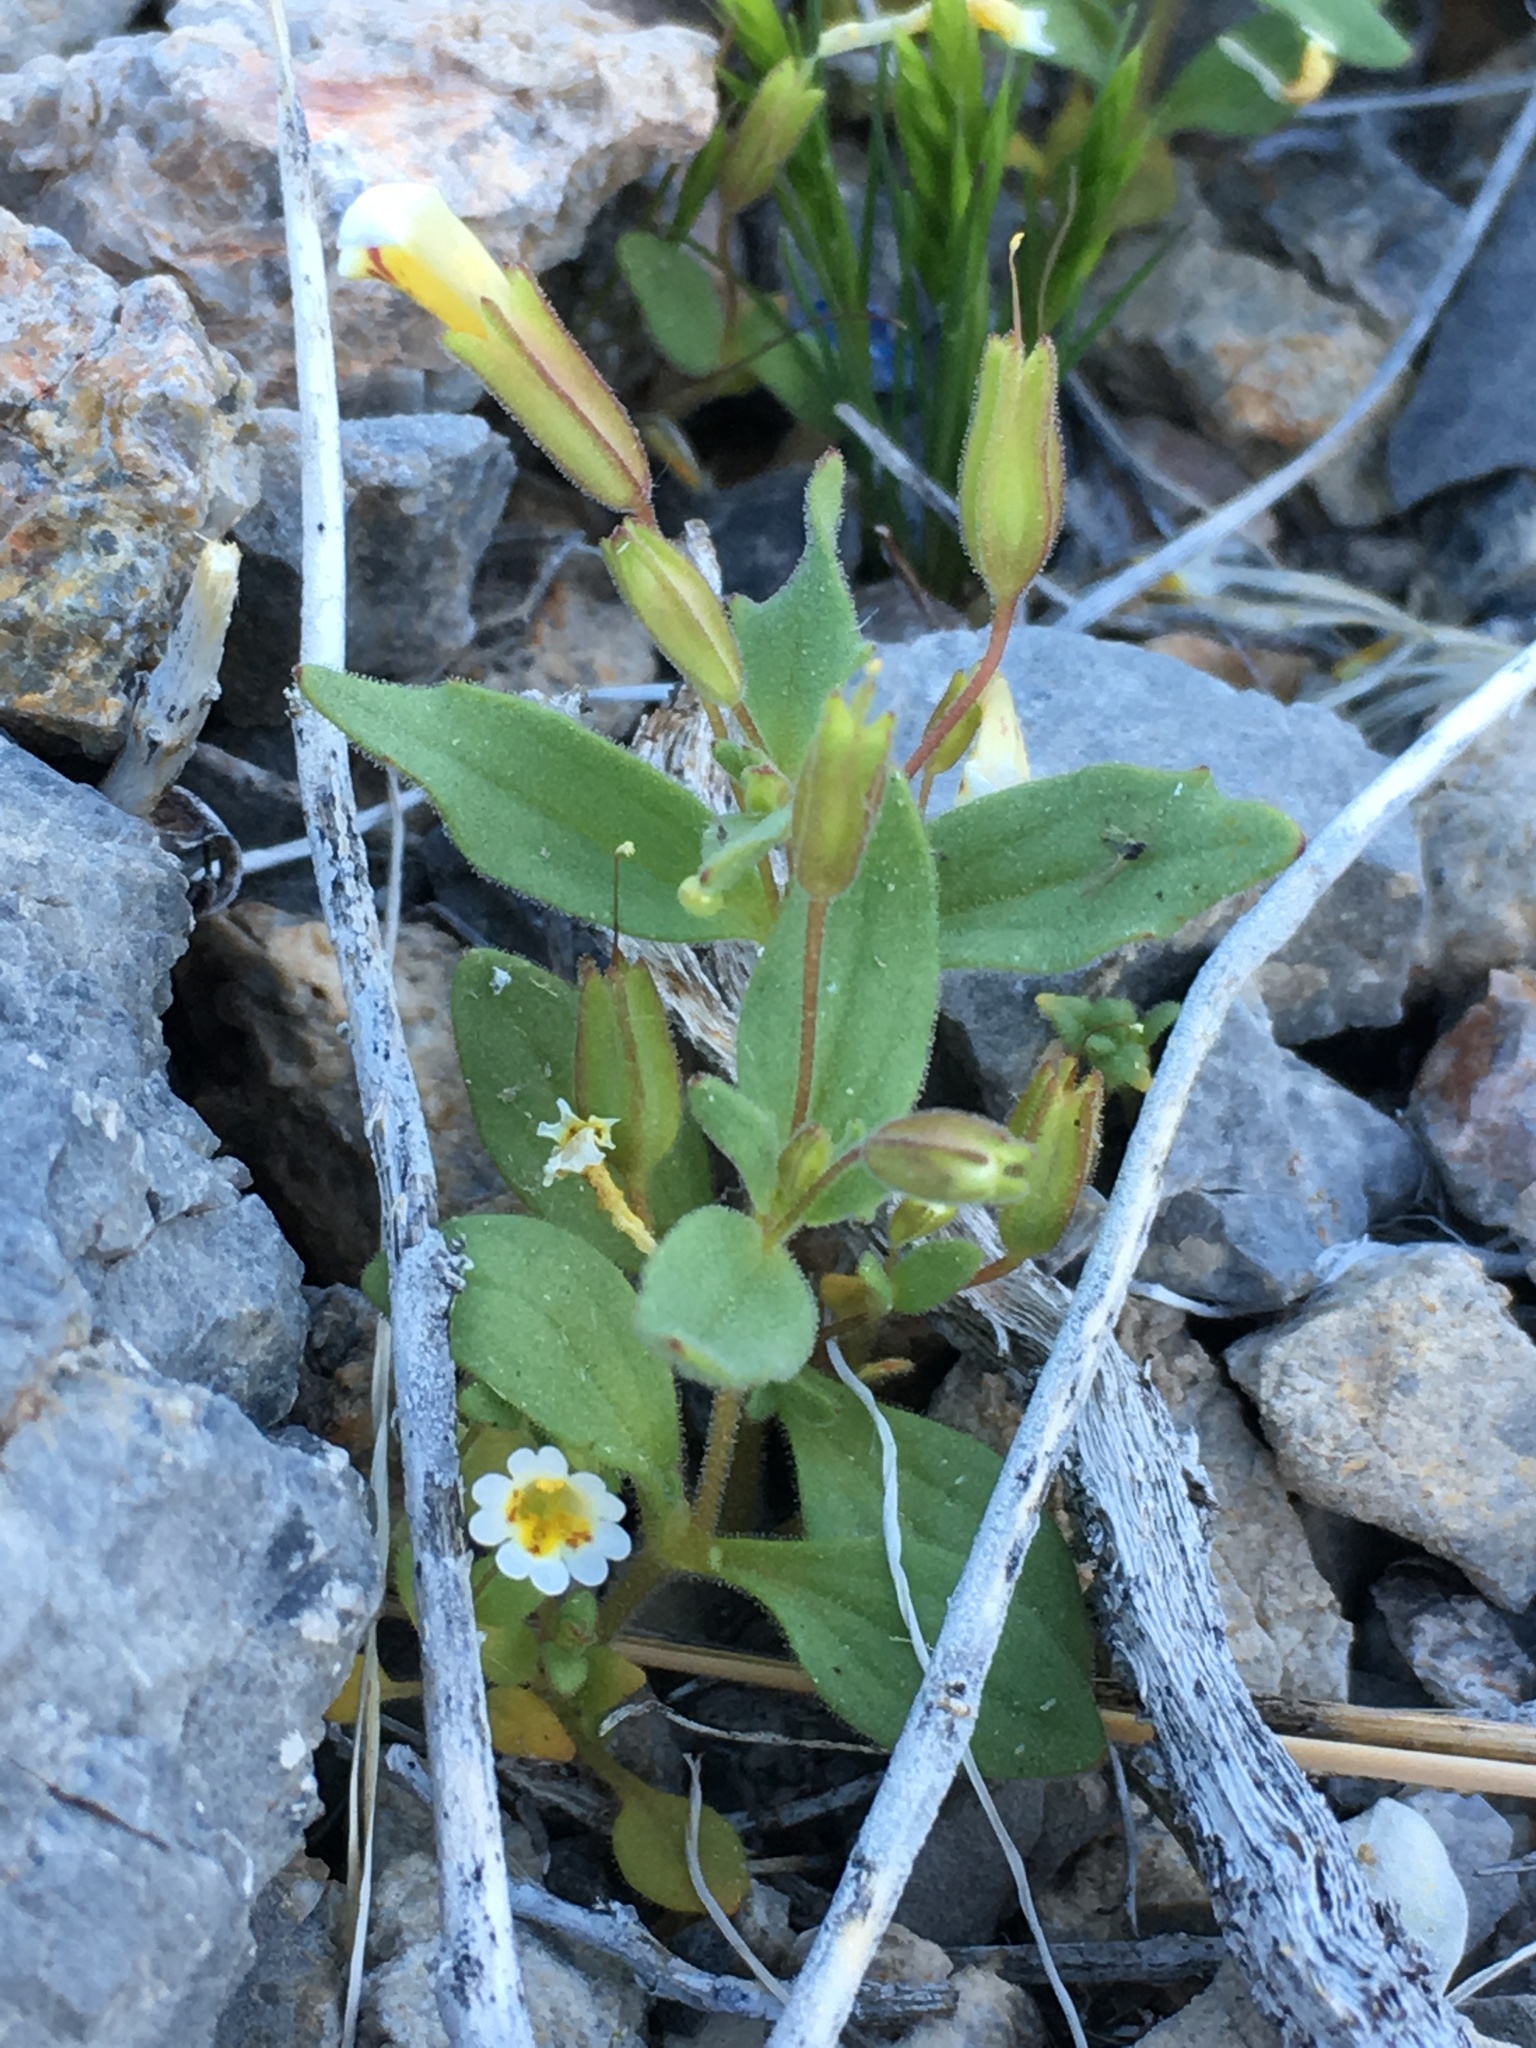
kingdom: Plantae
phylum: Tracheophyta
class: Magnoliopsida
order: Lamiales
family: Phrymaceae
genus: Erythranthe
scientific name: Erythranthe calcicola
